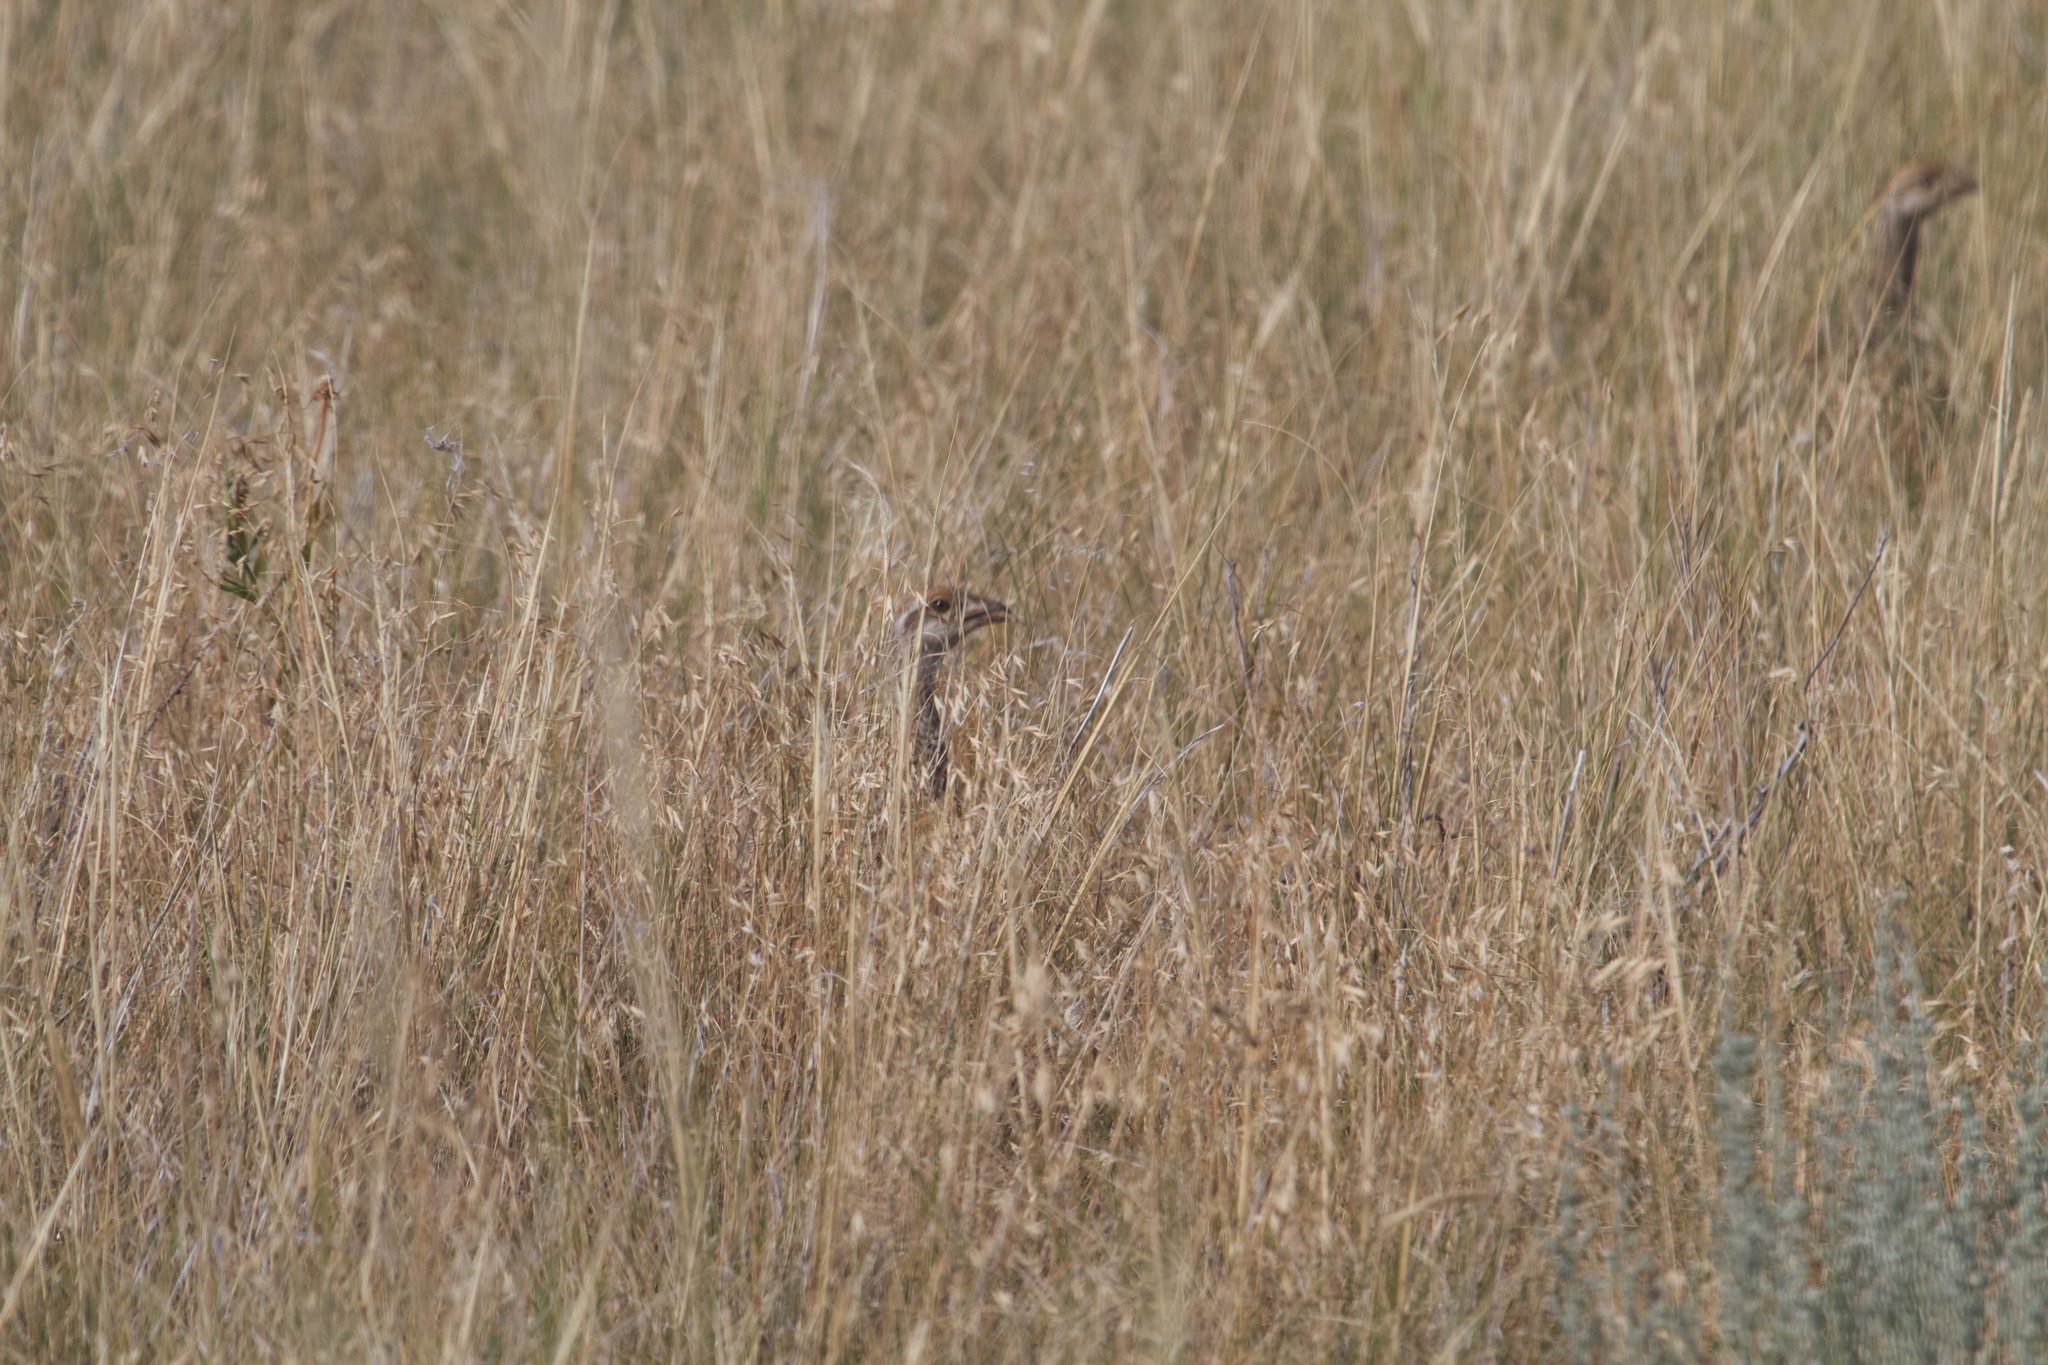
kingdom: Animalia
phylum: Chordata
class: Aves
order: Galliformes
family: Phasianidae
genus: Tympanuchus
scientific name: Tympanuchus phasianellus
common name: Sharp-tailed grouse
